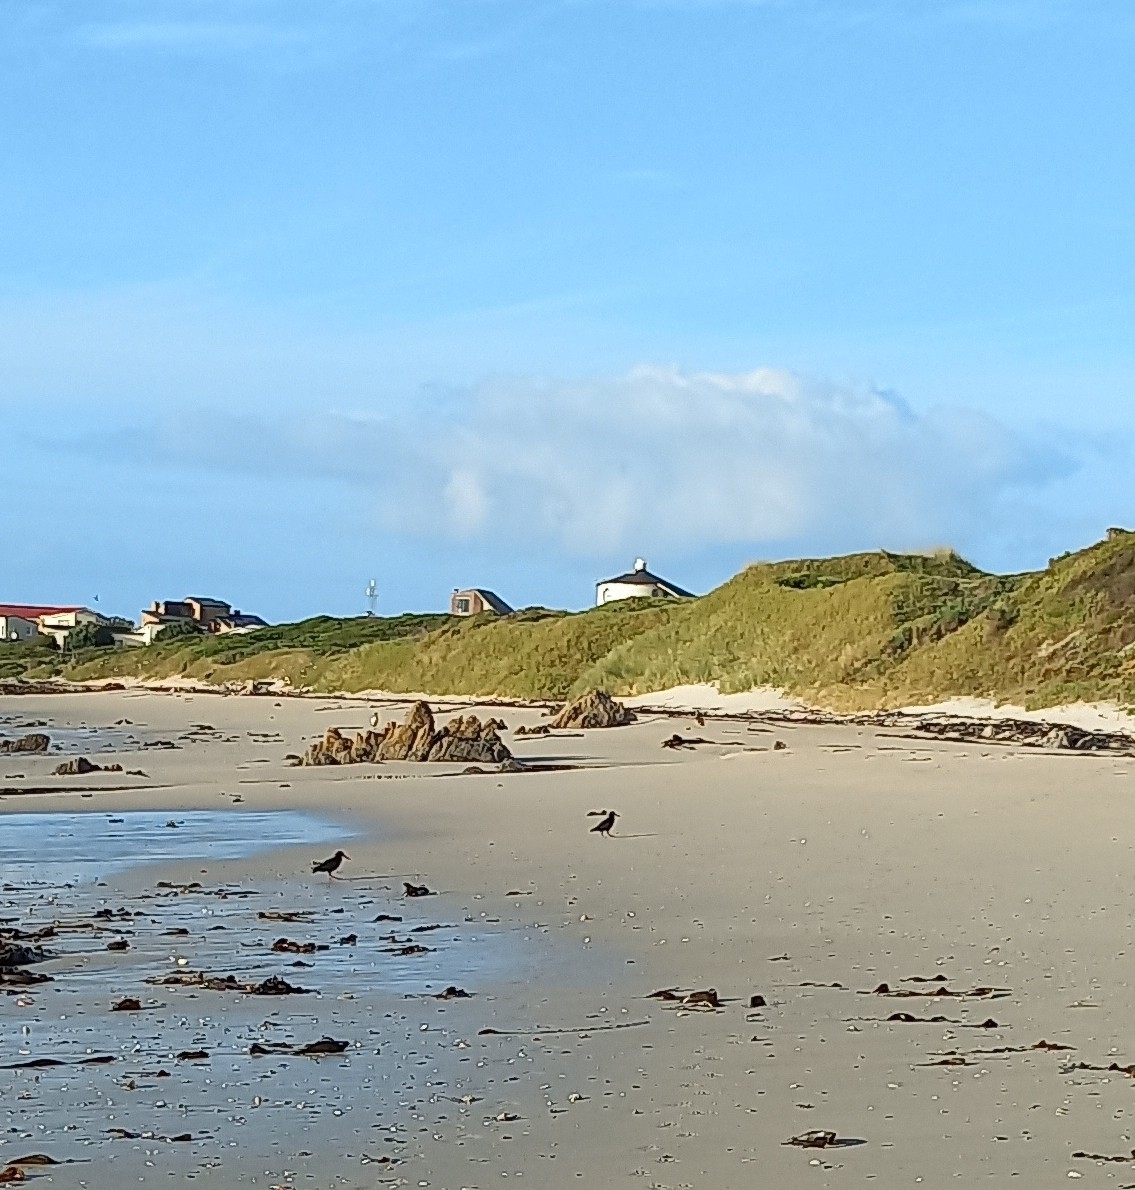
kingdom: Animalia
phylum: Chordata
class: Aves
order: Charadriiformes
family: Haematopodidae
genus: Haematopus
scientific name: Haematopus moquini
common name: African oystercatcher
